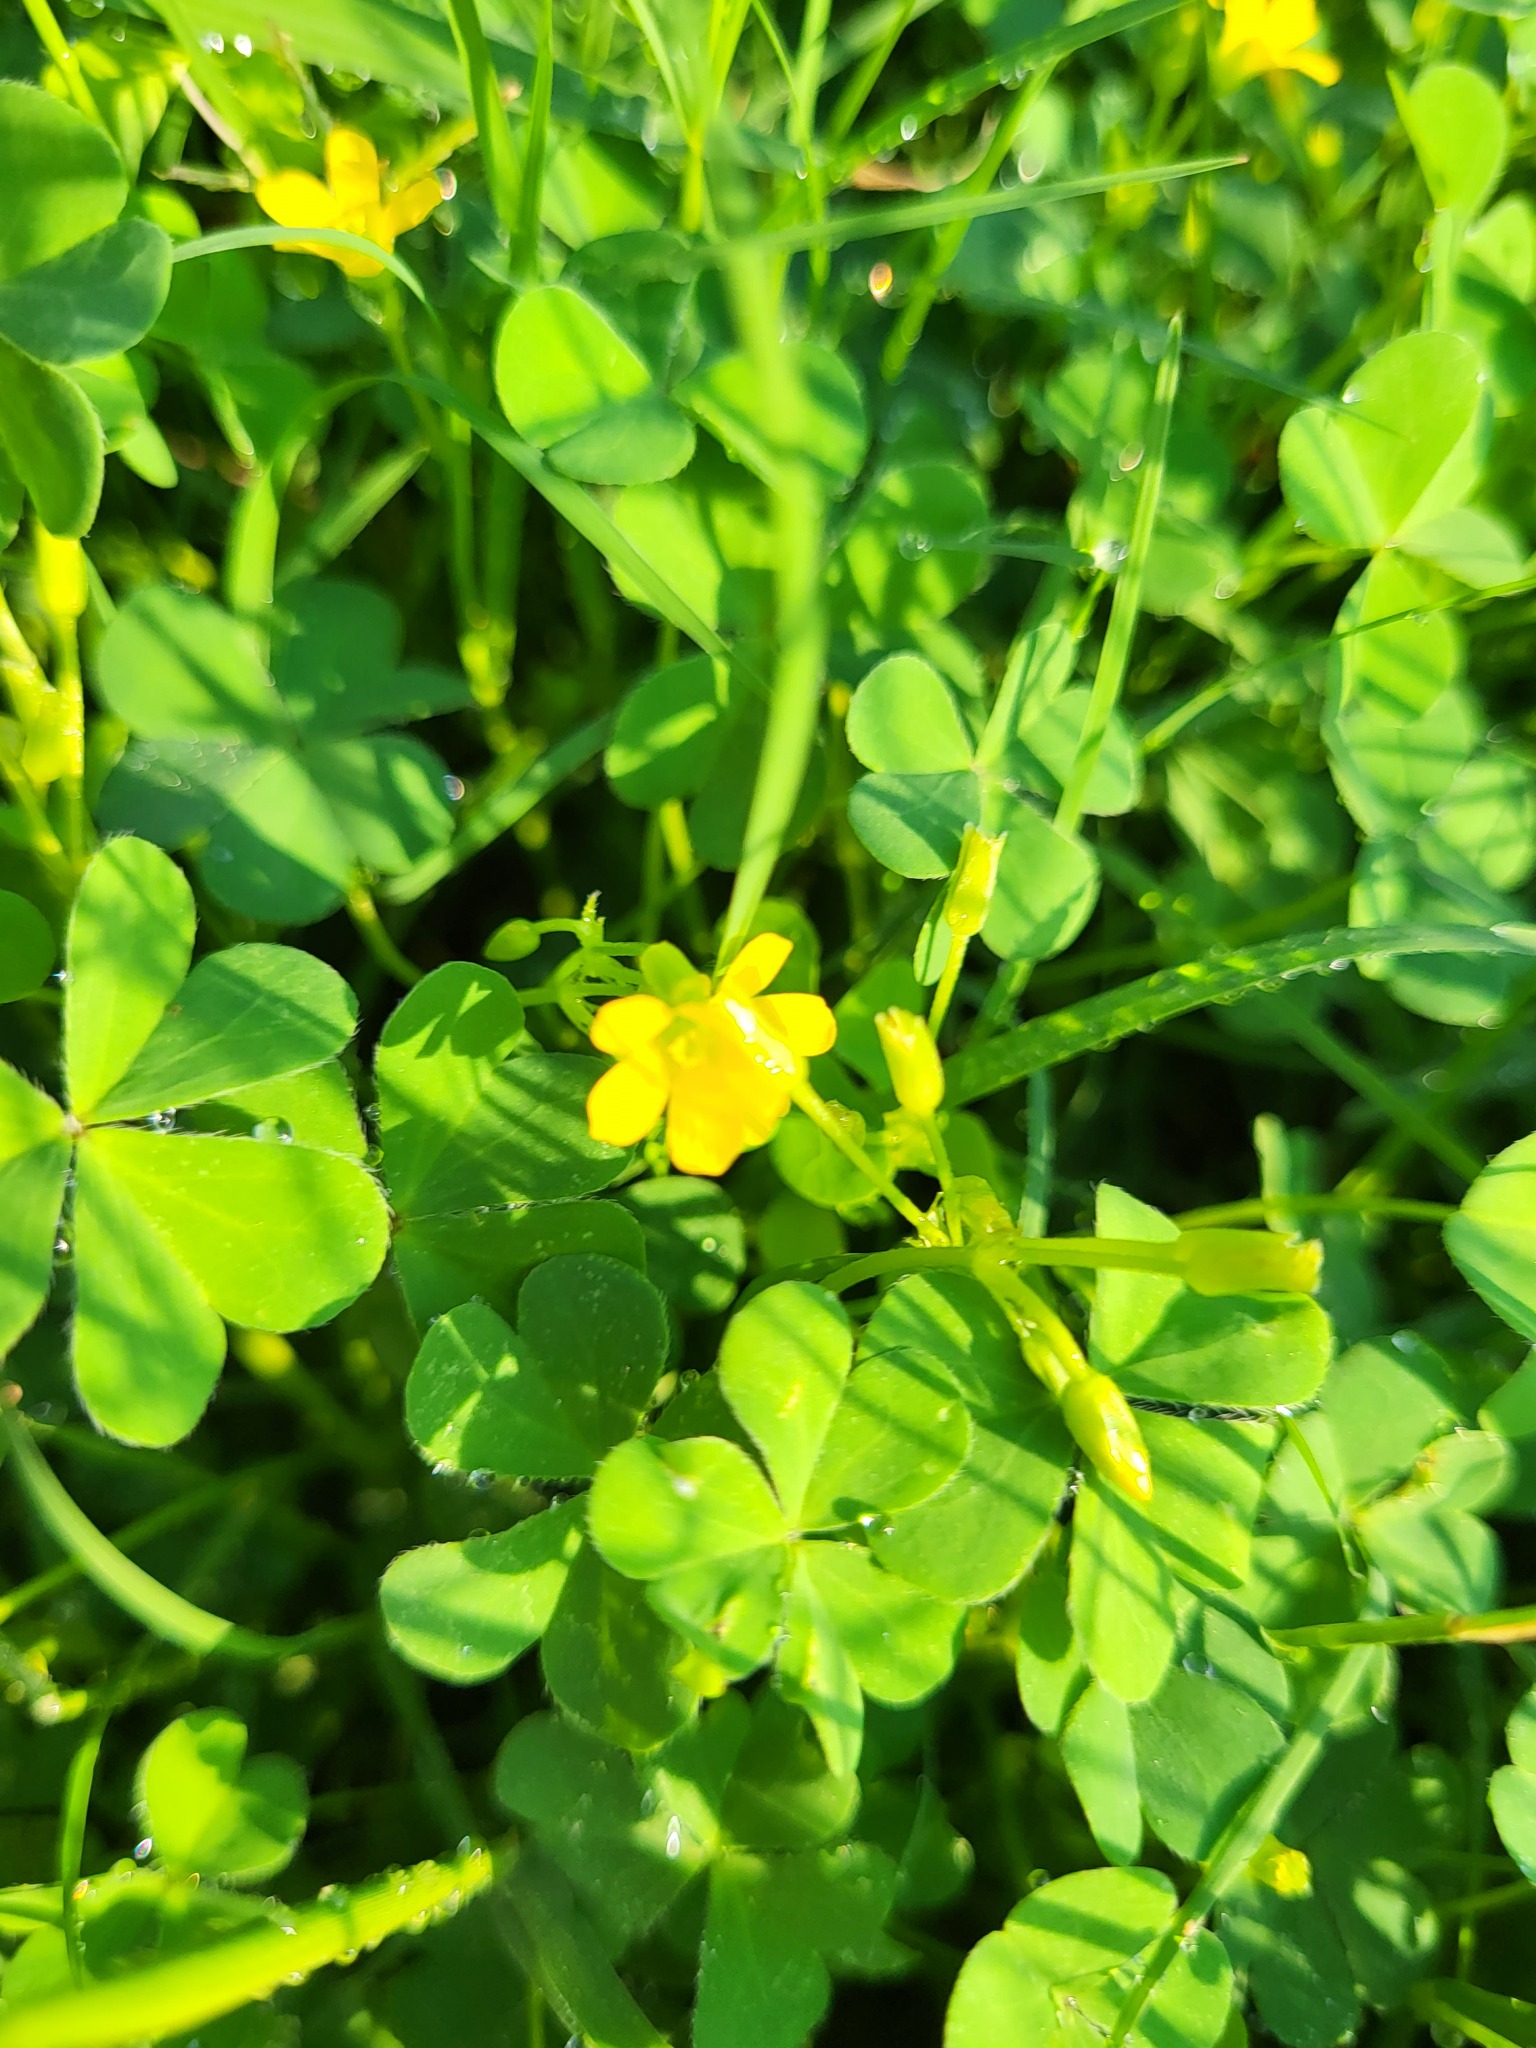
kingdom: Plantae
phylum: Tracheophyta
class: Magnoliopsida
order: Oxalidales
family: Oxalidaceae
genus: Oxalis
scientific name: Oxalis dillenii
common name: Sussex yellow-sorrel
